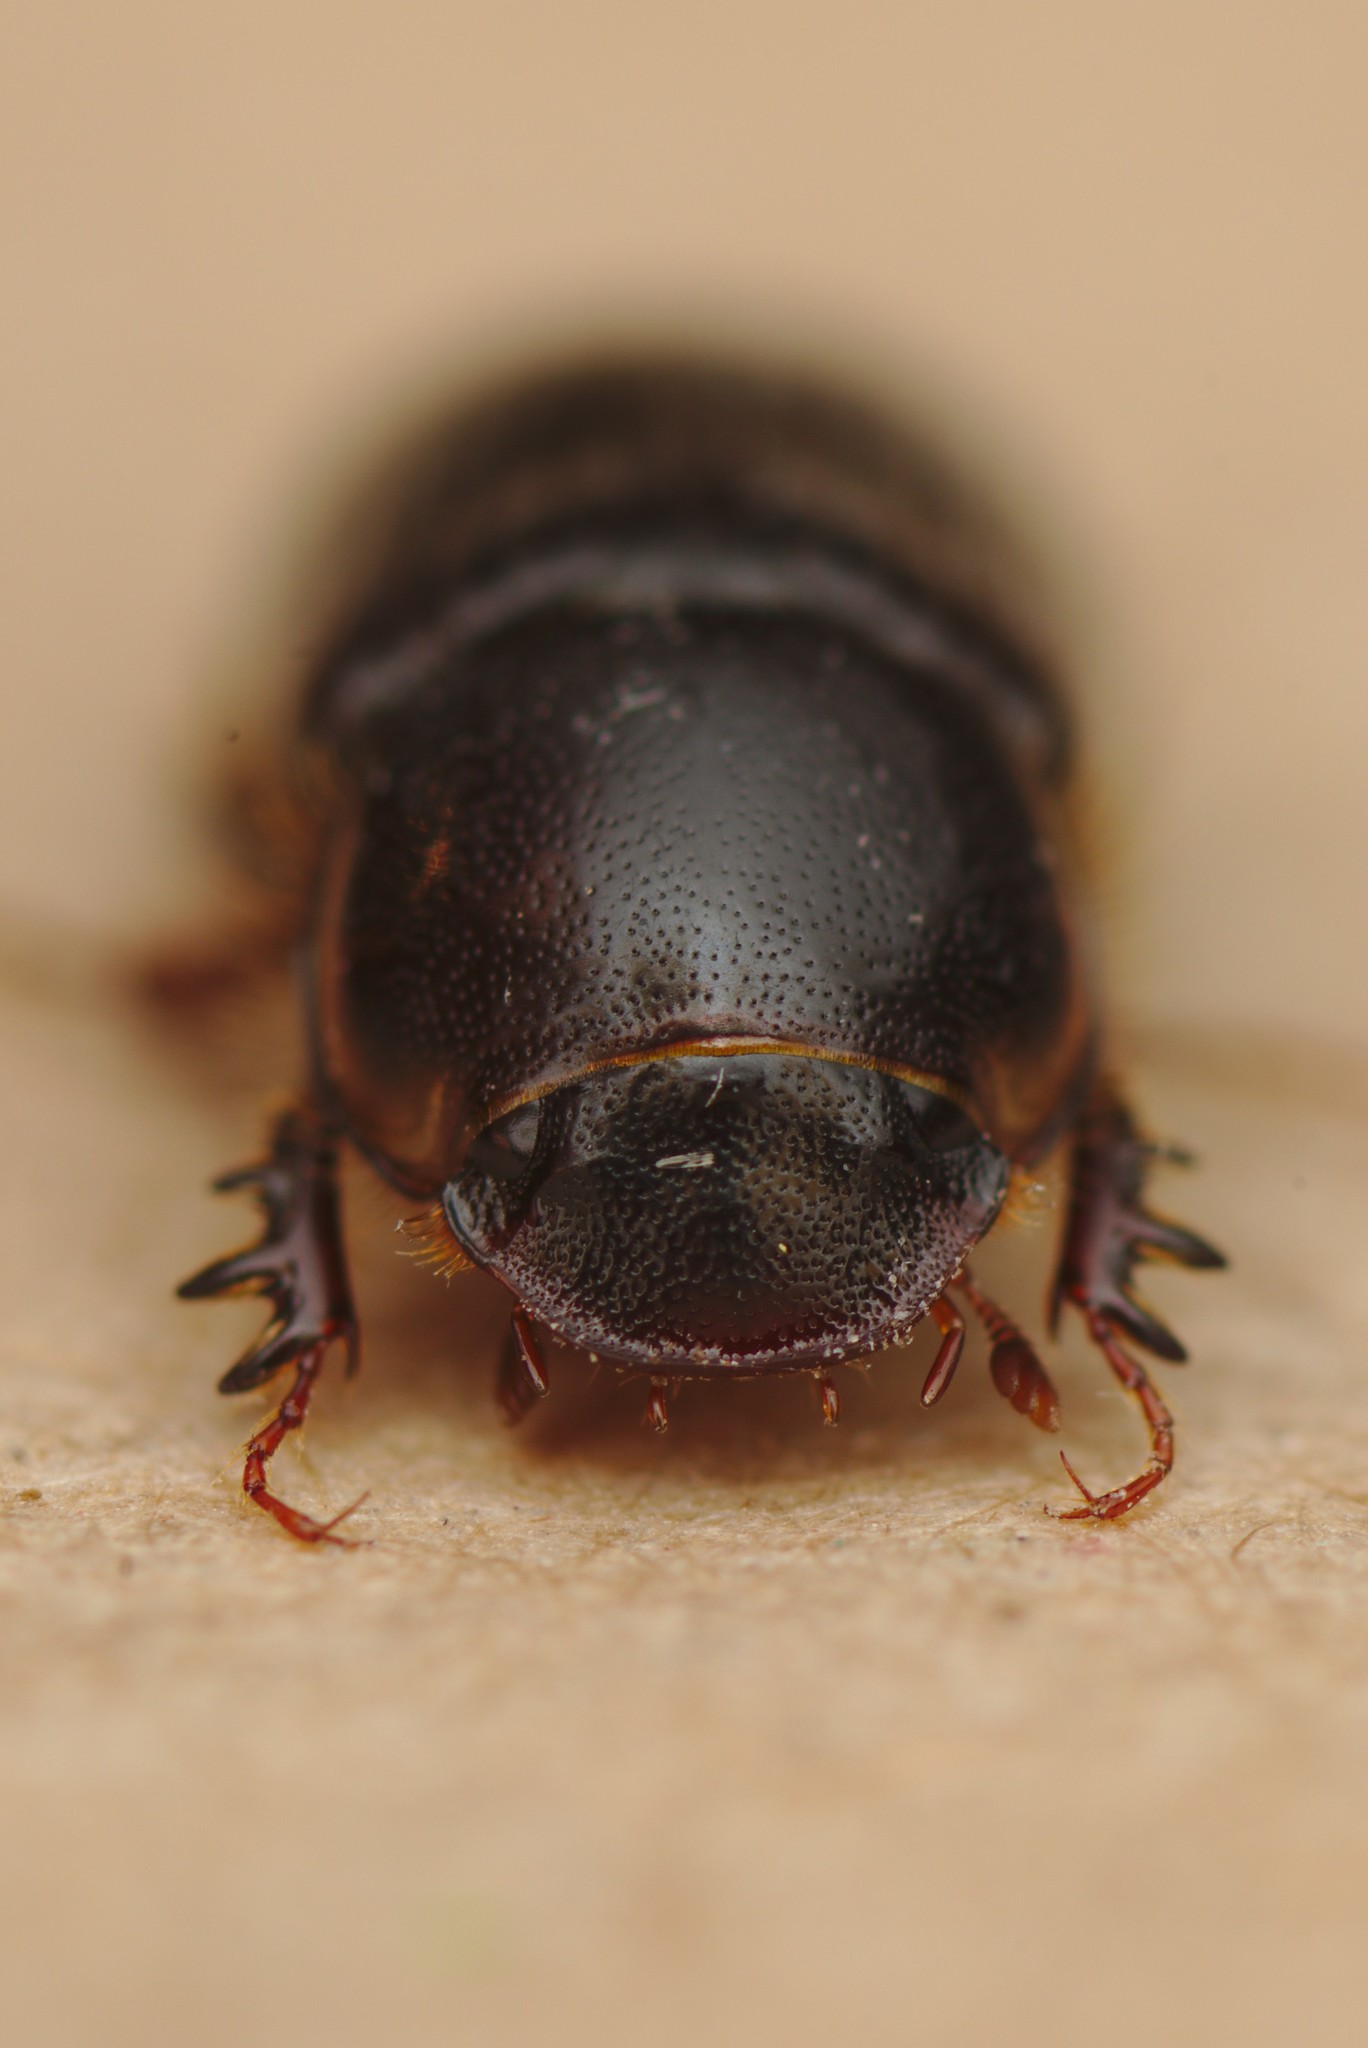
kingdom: Animalia
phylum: Arthropoda
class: Insecta
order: Coleoptera
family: Scarabaeidae
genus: Acrossidius
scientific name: Acrossidius tasmaniae
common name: Black-headed pasture cockchafer
